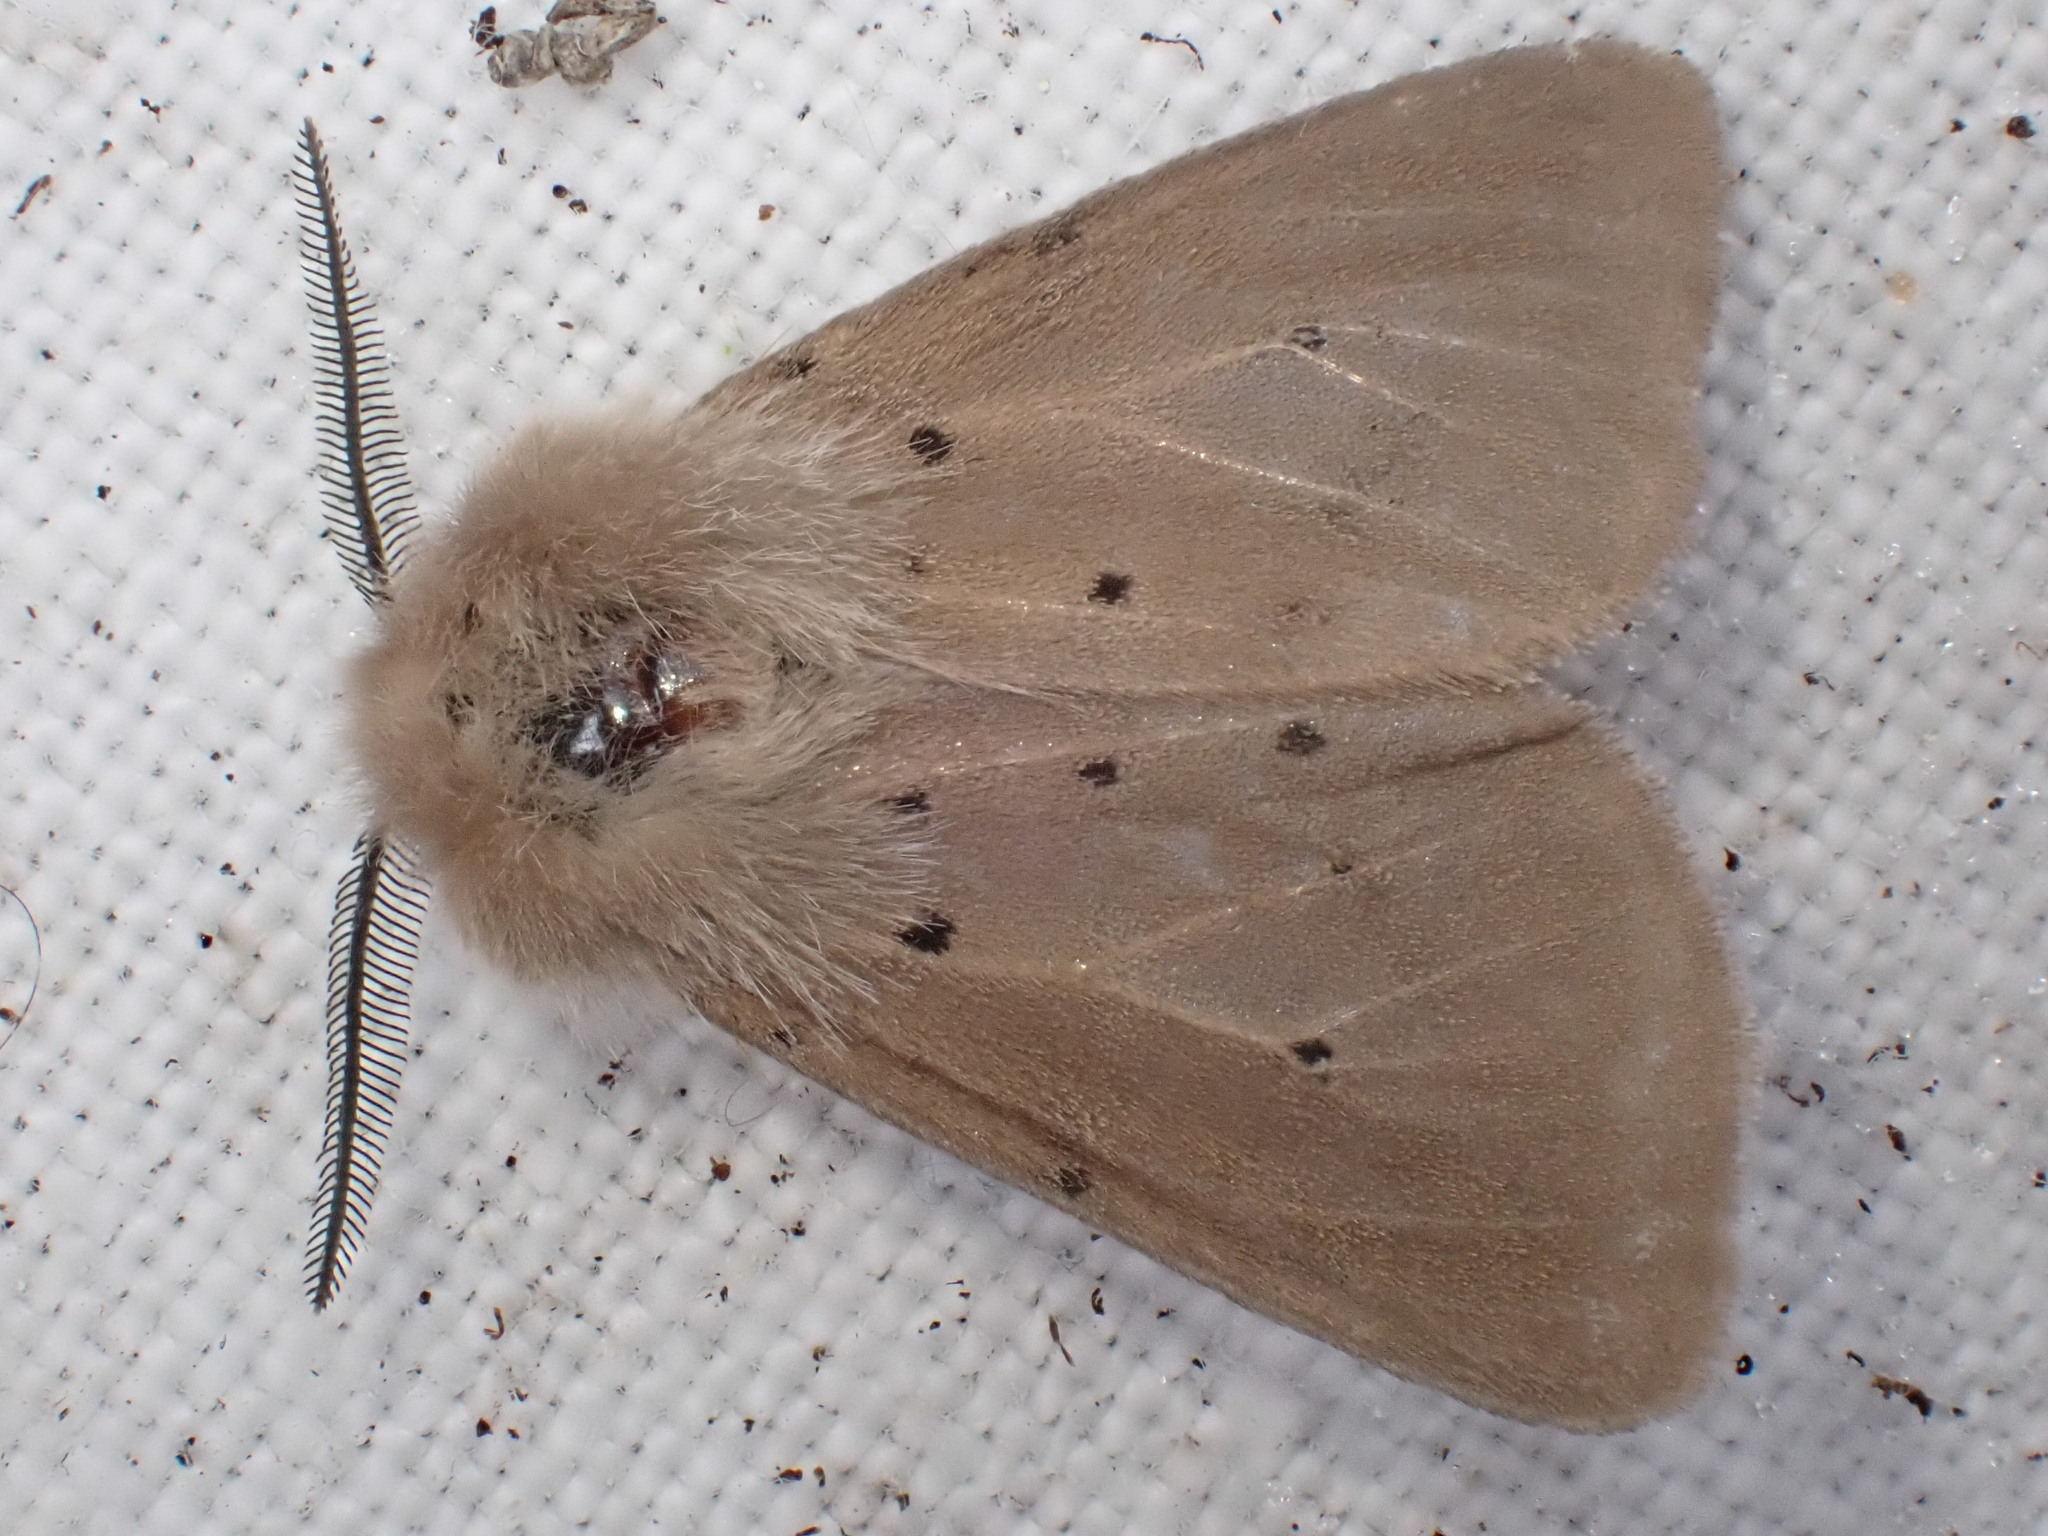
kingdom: Animalia
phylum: Arthropoda
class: Insecta
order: Lepidoptera
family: Erebidae
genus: Diaphora
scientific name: Diaphora mendica
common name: Muslin moth
